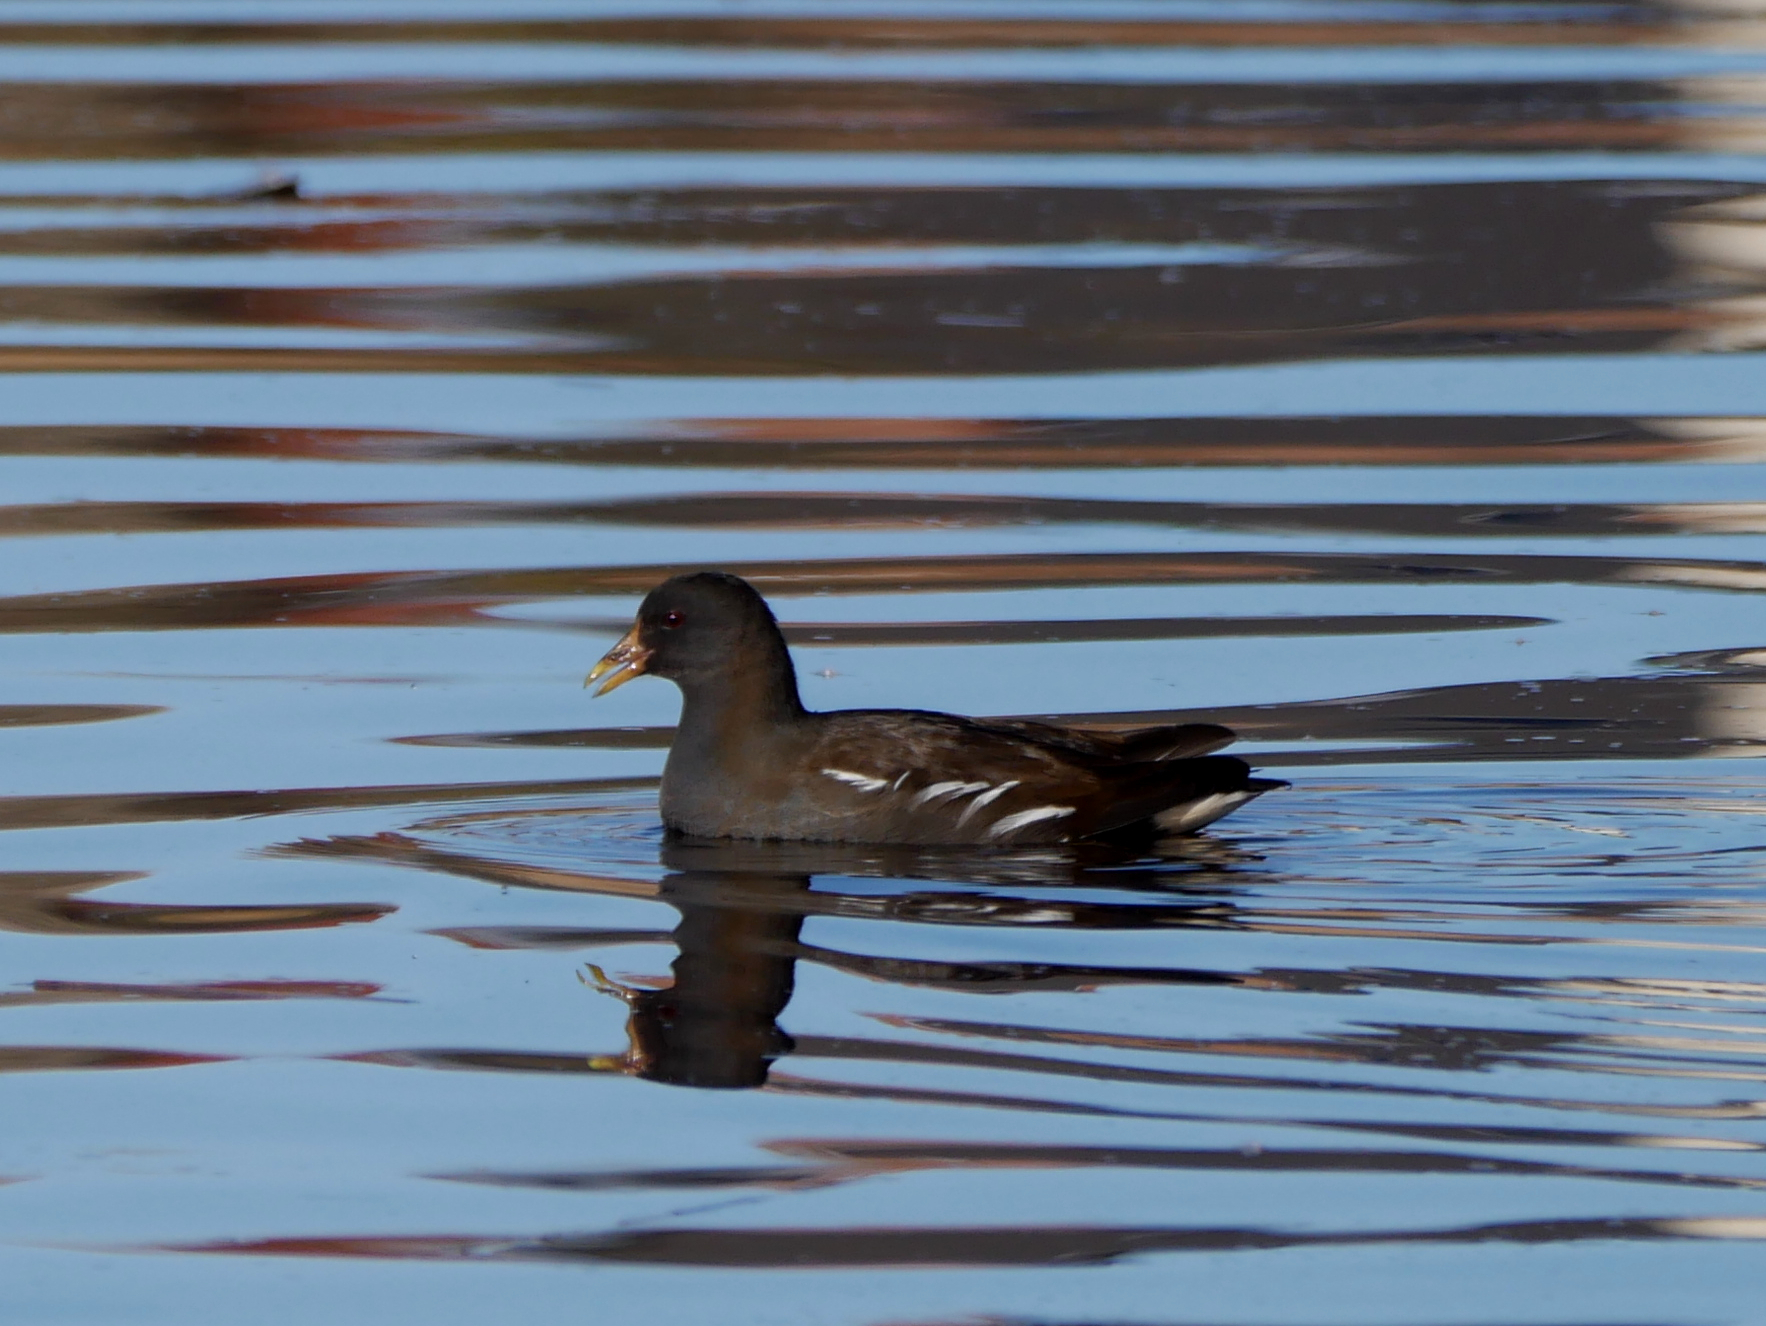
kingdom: Animalia
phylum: Chordata
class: Aves
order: Gruiformes
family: Rallidae
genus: Gallinula
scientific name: Gallinula chloropus
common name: Common moorhen
